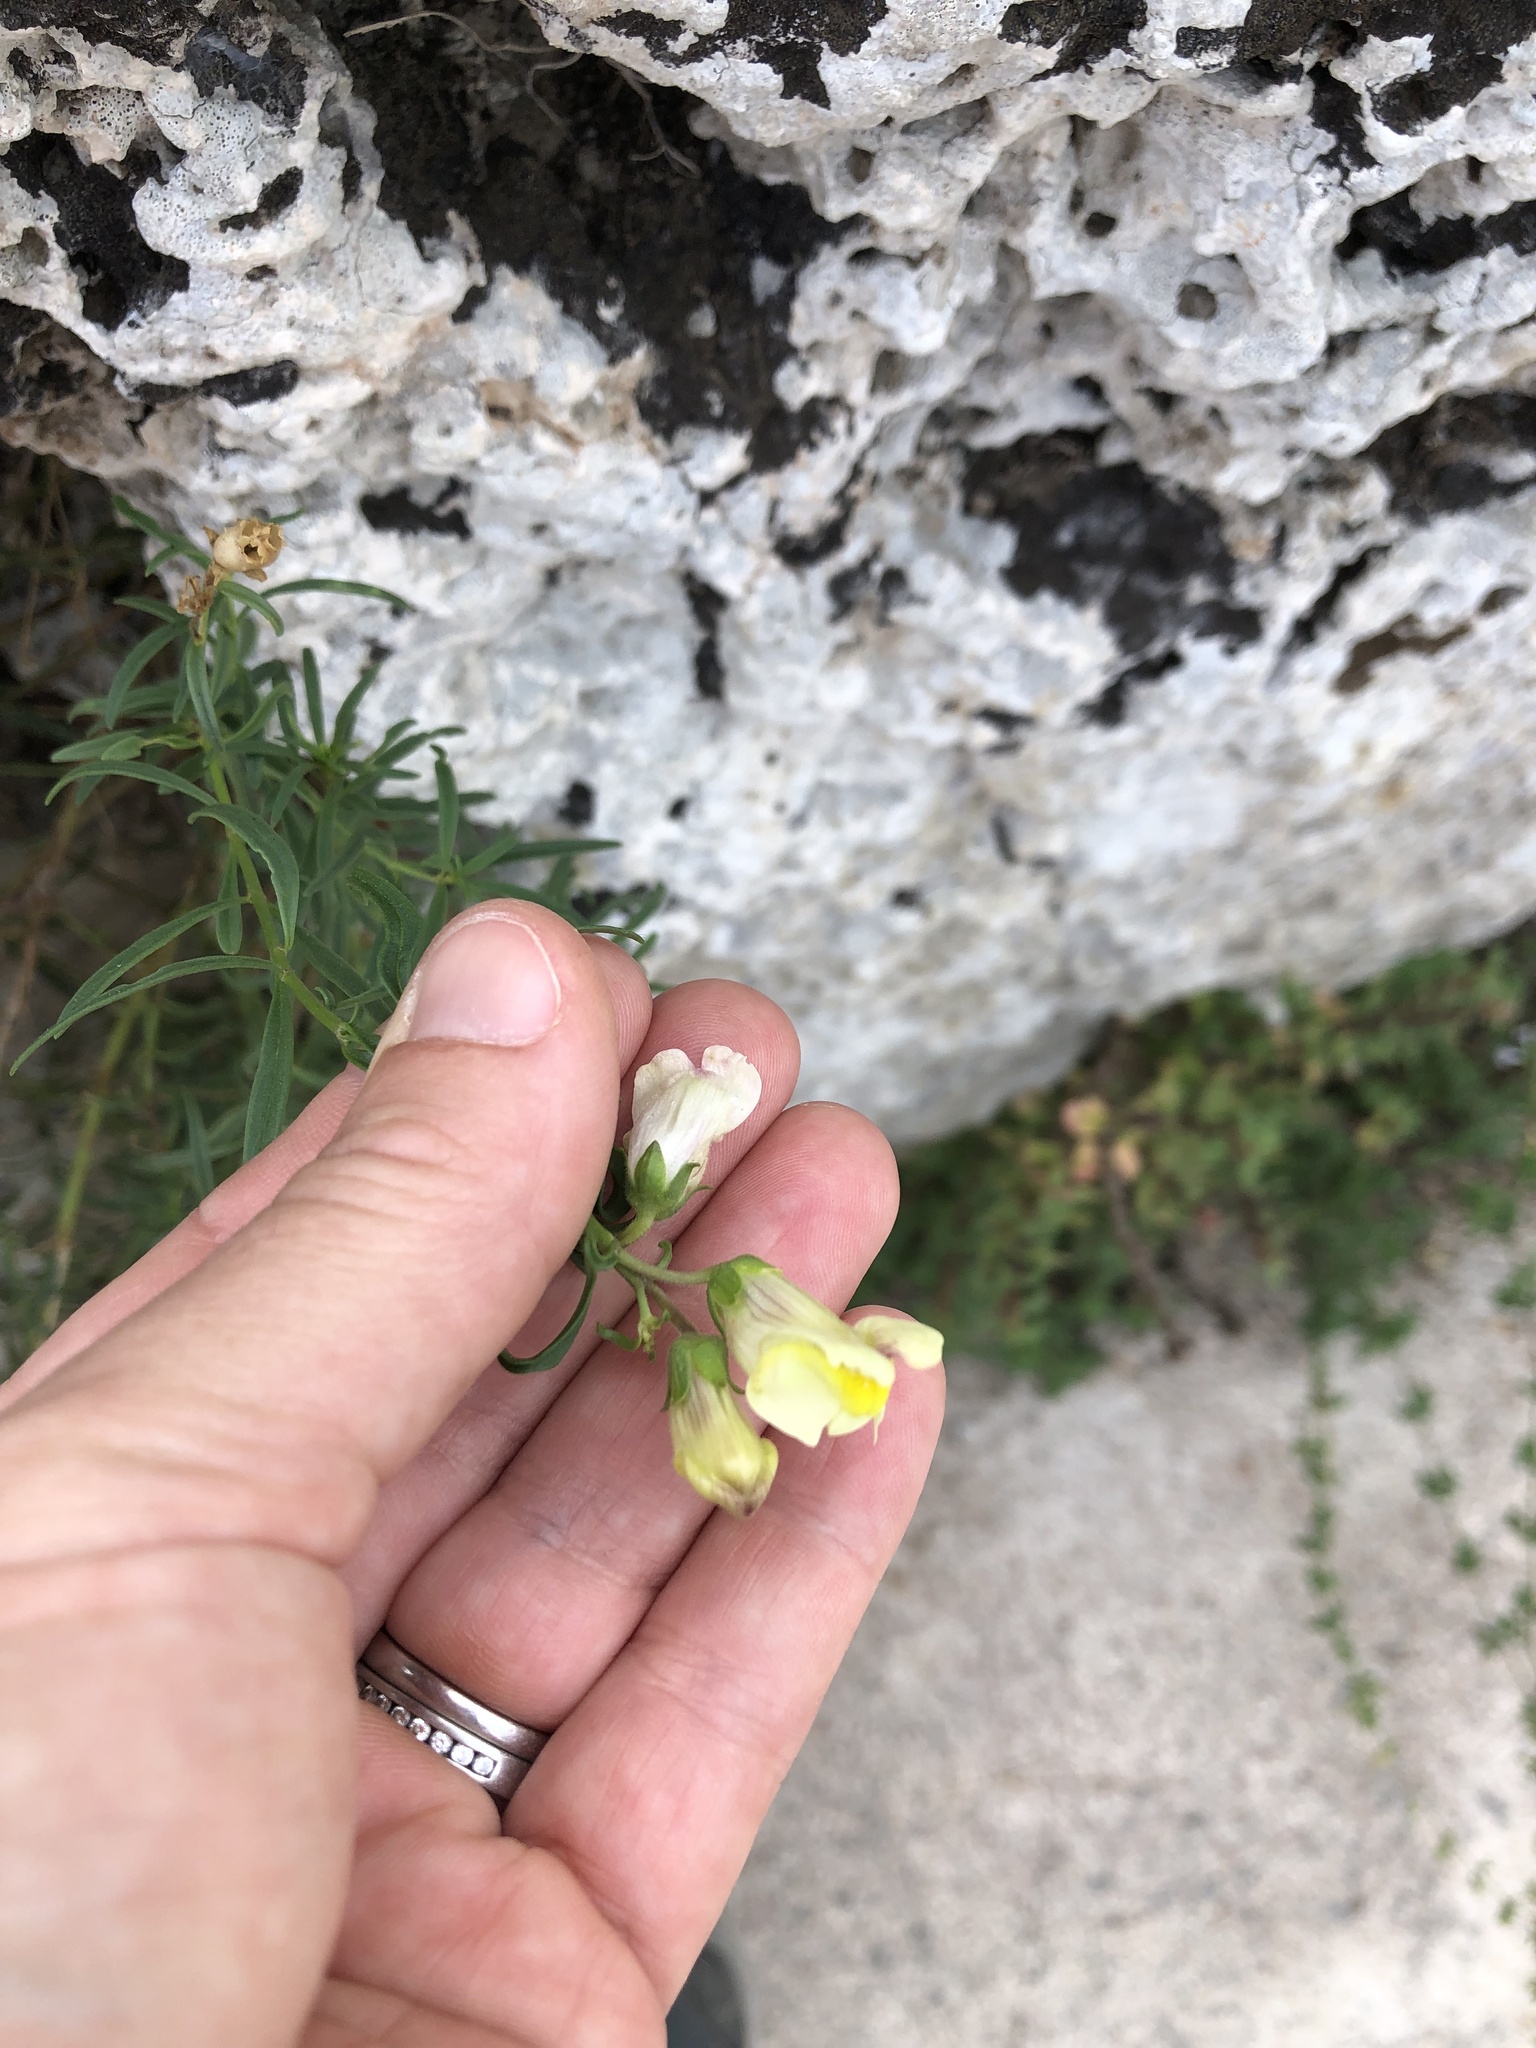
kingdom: Plantae
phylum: Tracheophyta
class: Magnoliopsida
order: Lamiales
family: Plantaginaceae
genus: Antirrhinum
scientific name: Antirrhinum siculum
